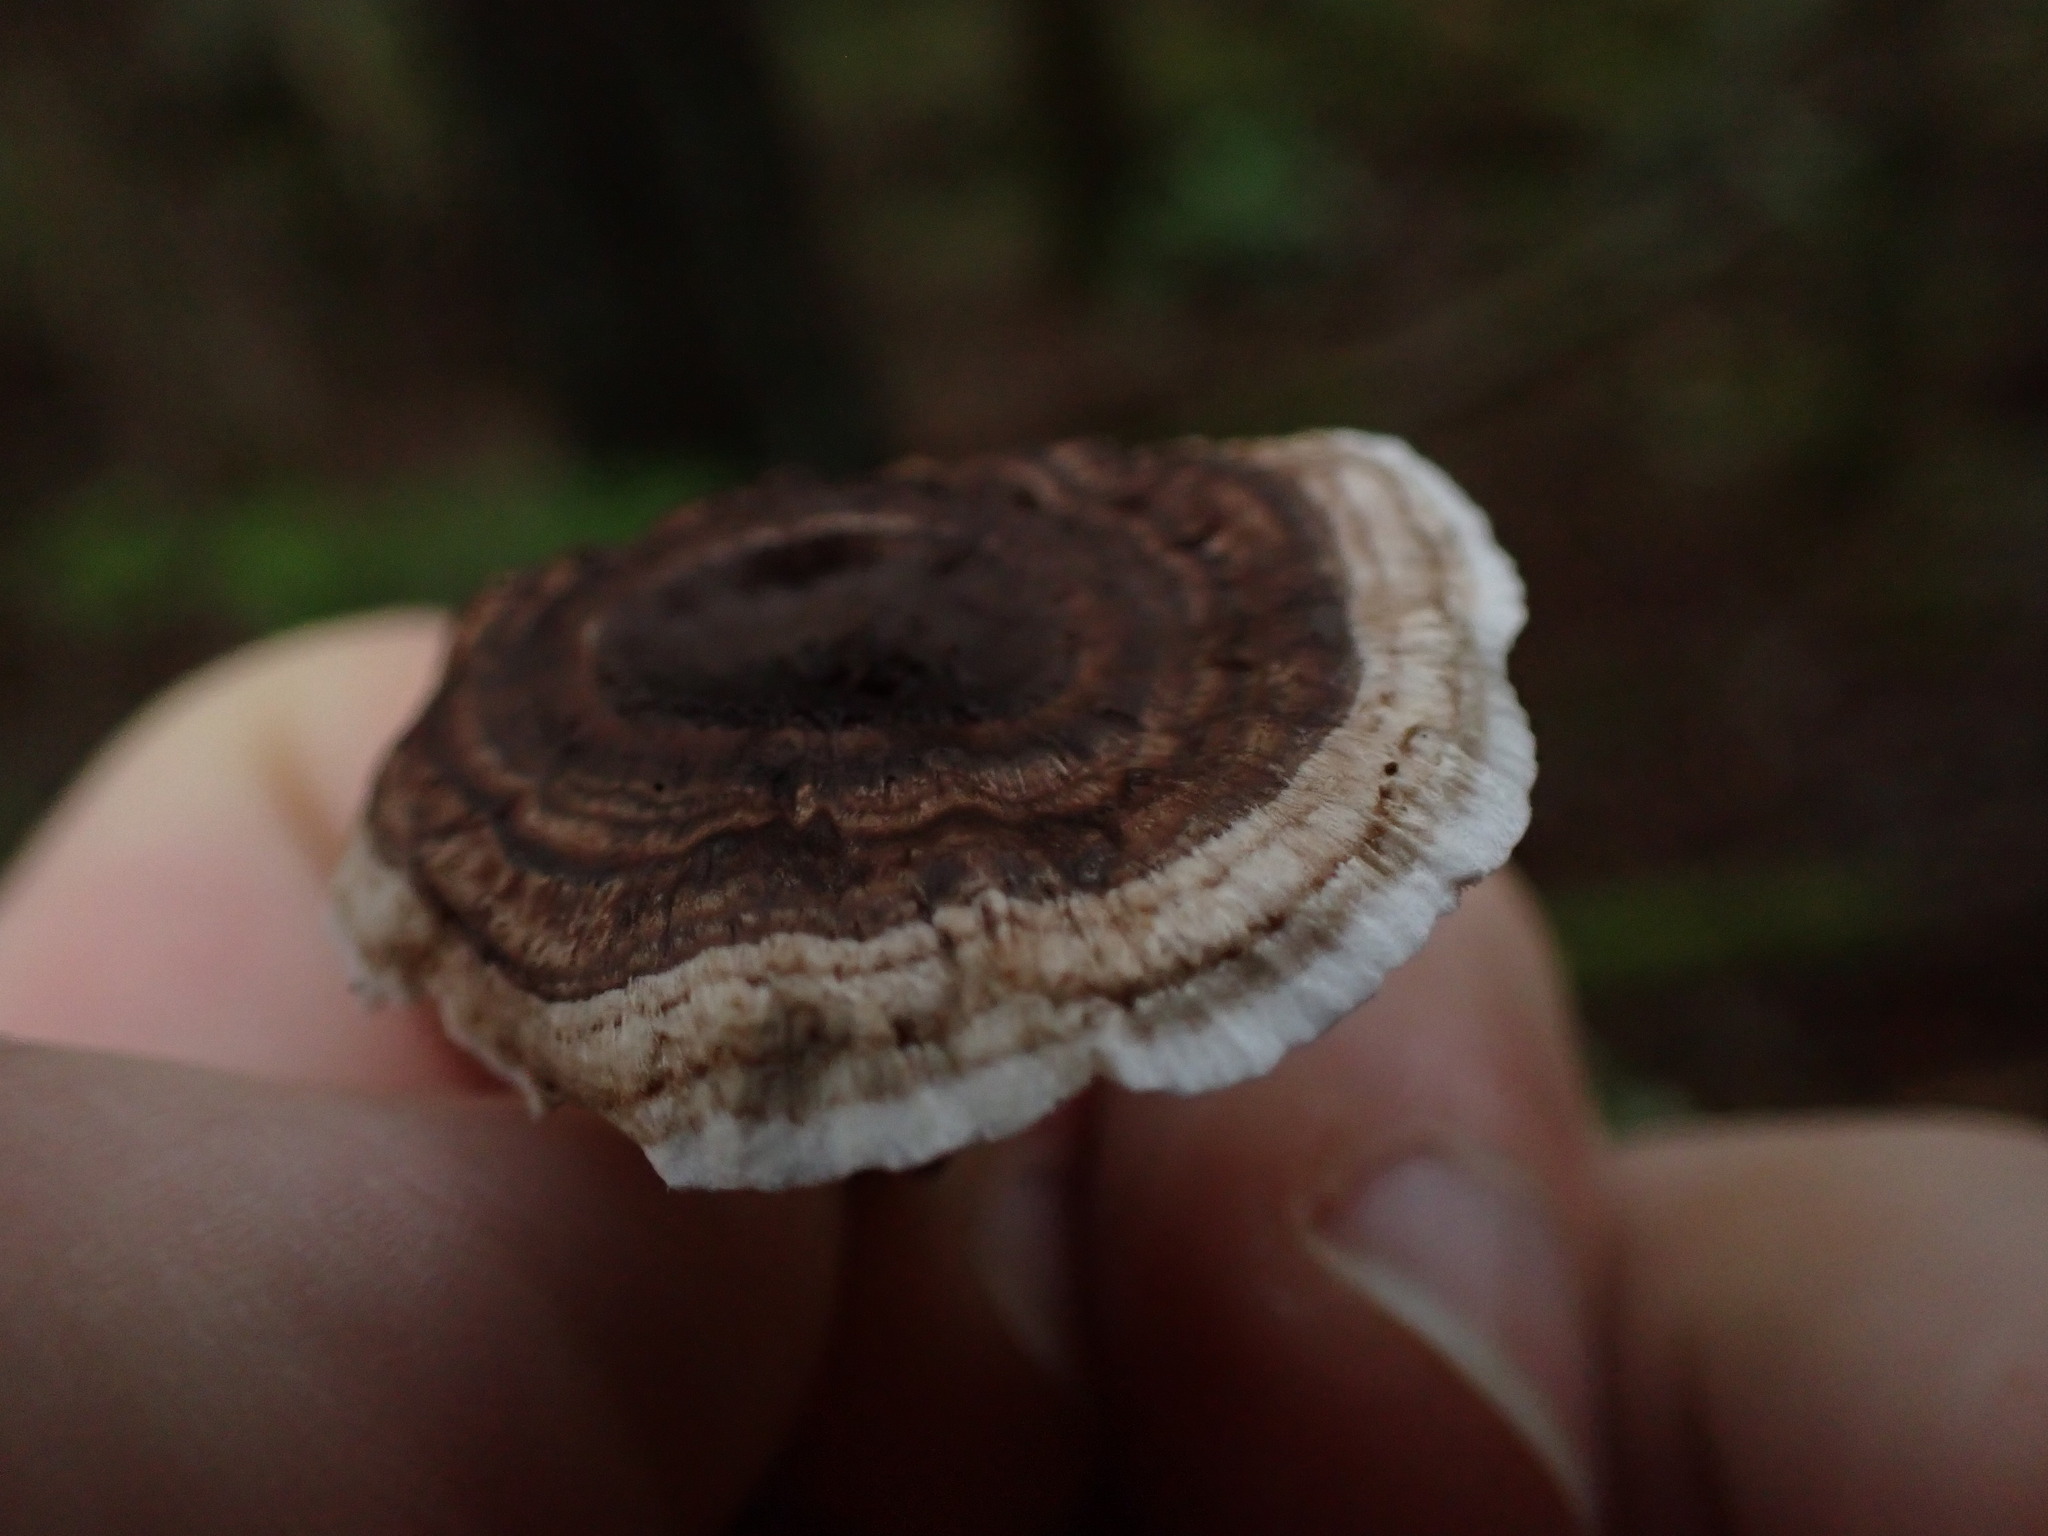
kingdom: Fungi
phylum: Basidiomycota
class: Agaricomycetes
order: Thelephorales
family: Thelephoraceae
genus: Phellodon
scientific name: Phellodon tomentosus
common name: Woolly tooth
